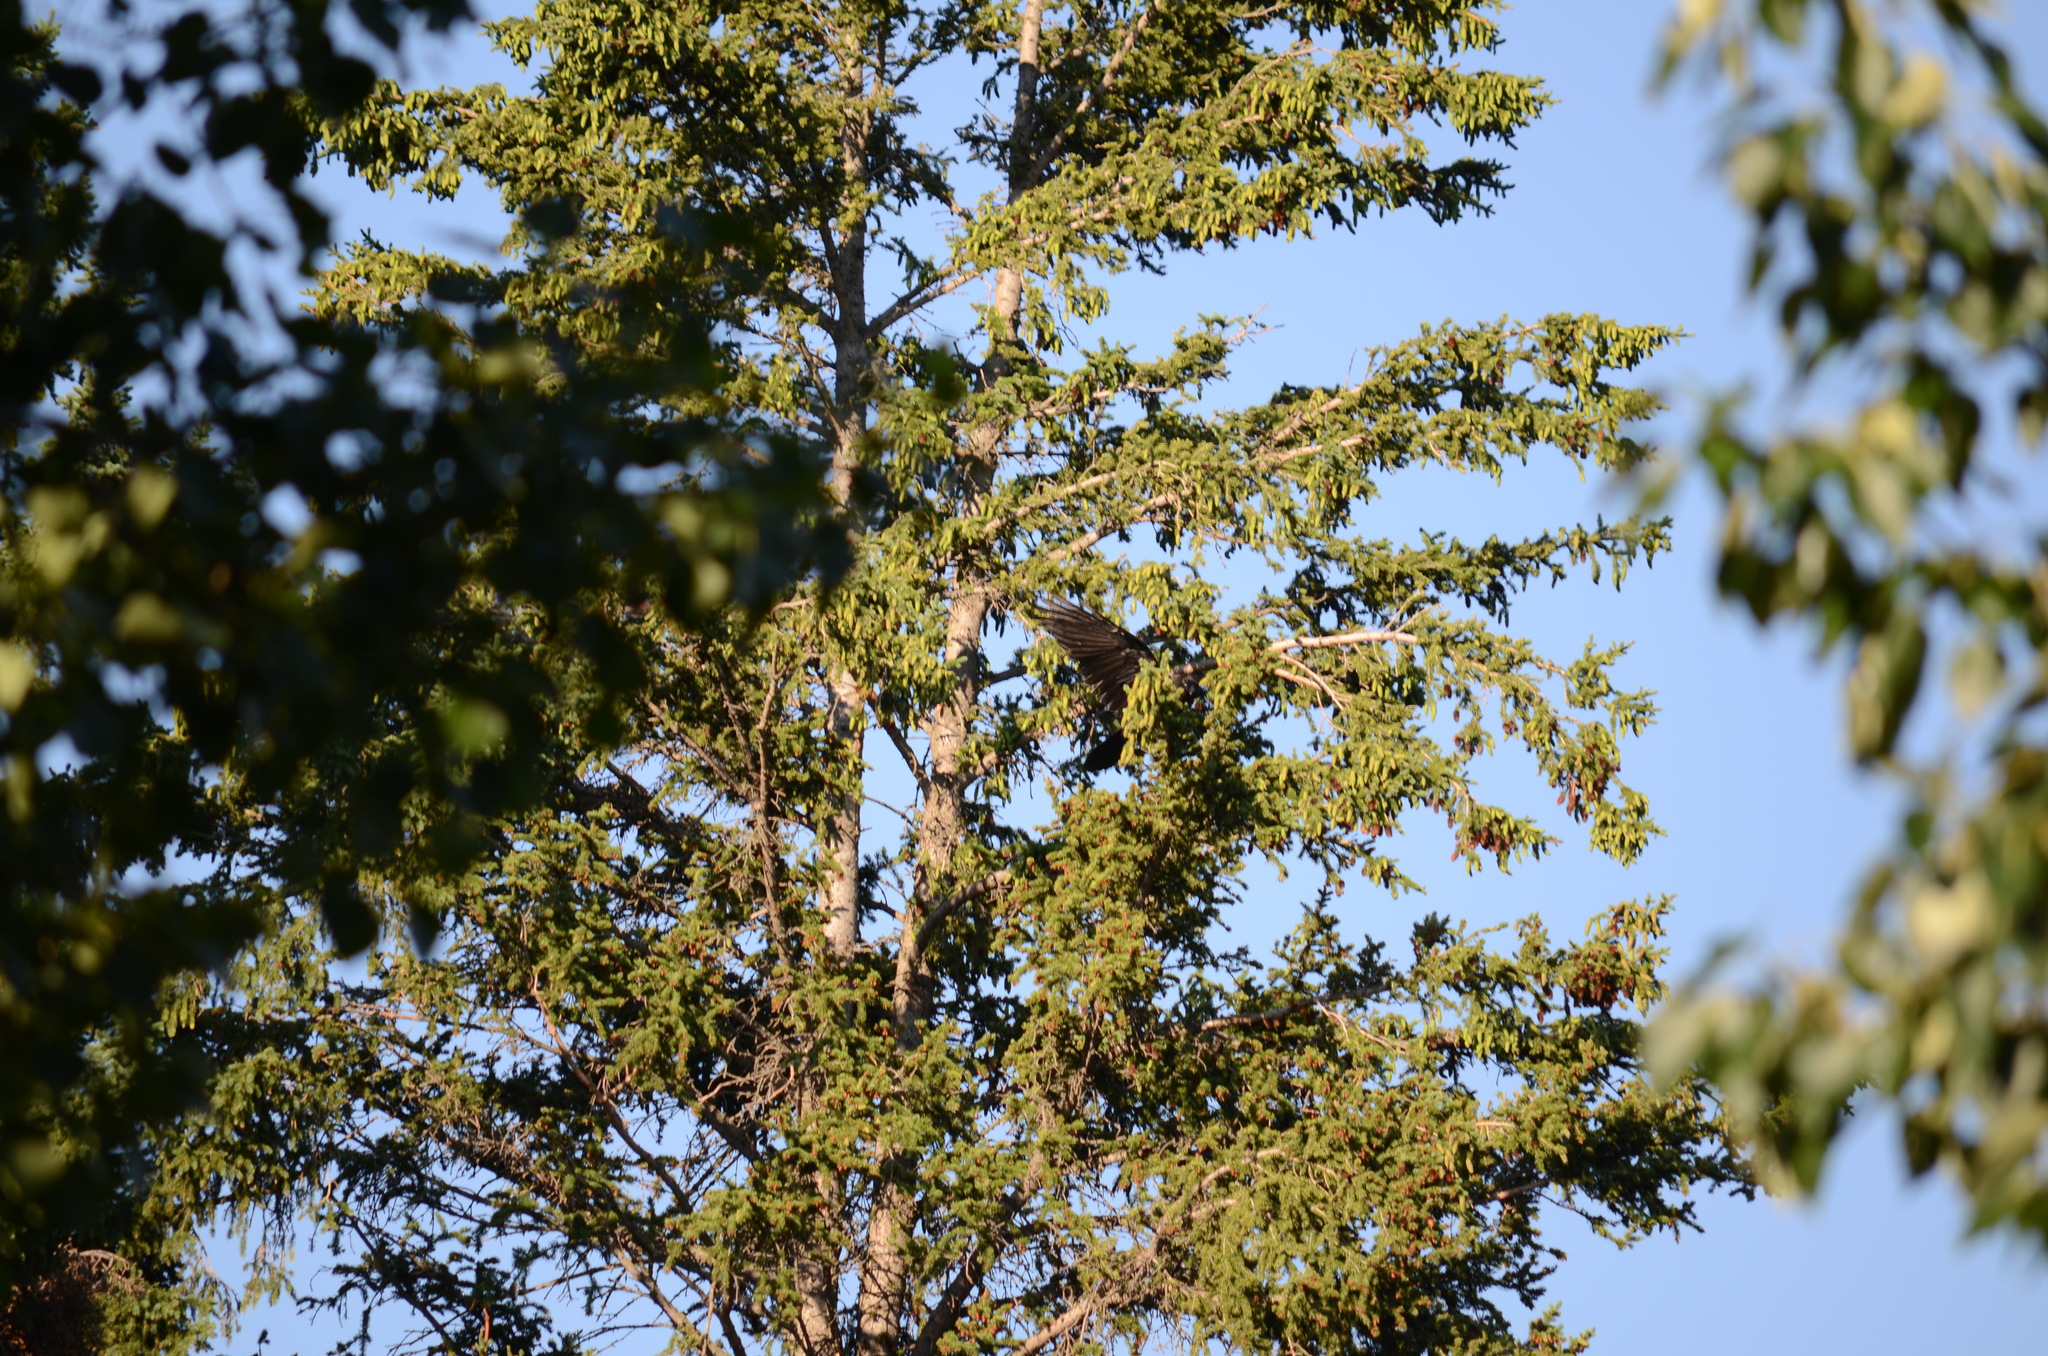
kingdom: Animalia
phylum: Chordata
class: Aves
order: Passeriformes
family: Corvidae
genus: Corvus
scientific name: Corvus corax
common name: Common raven
